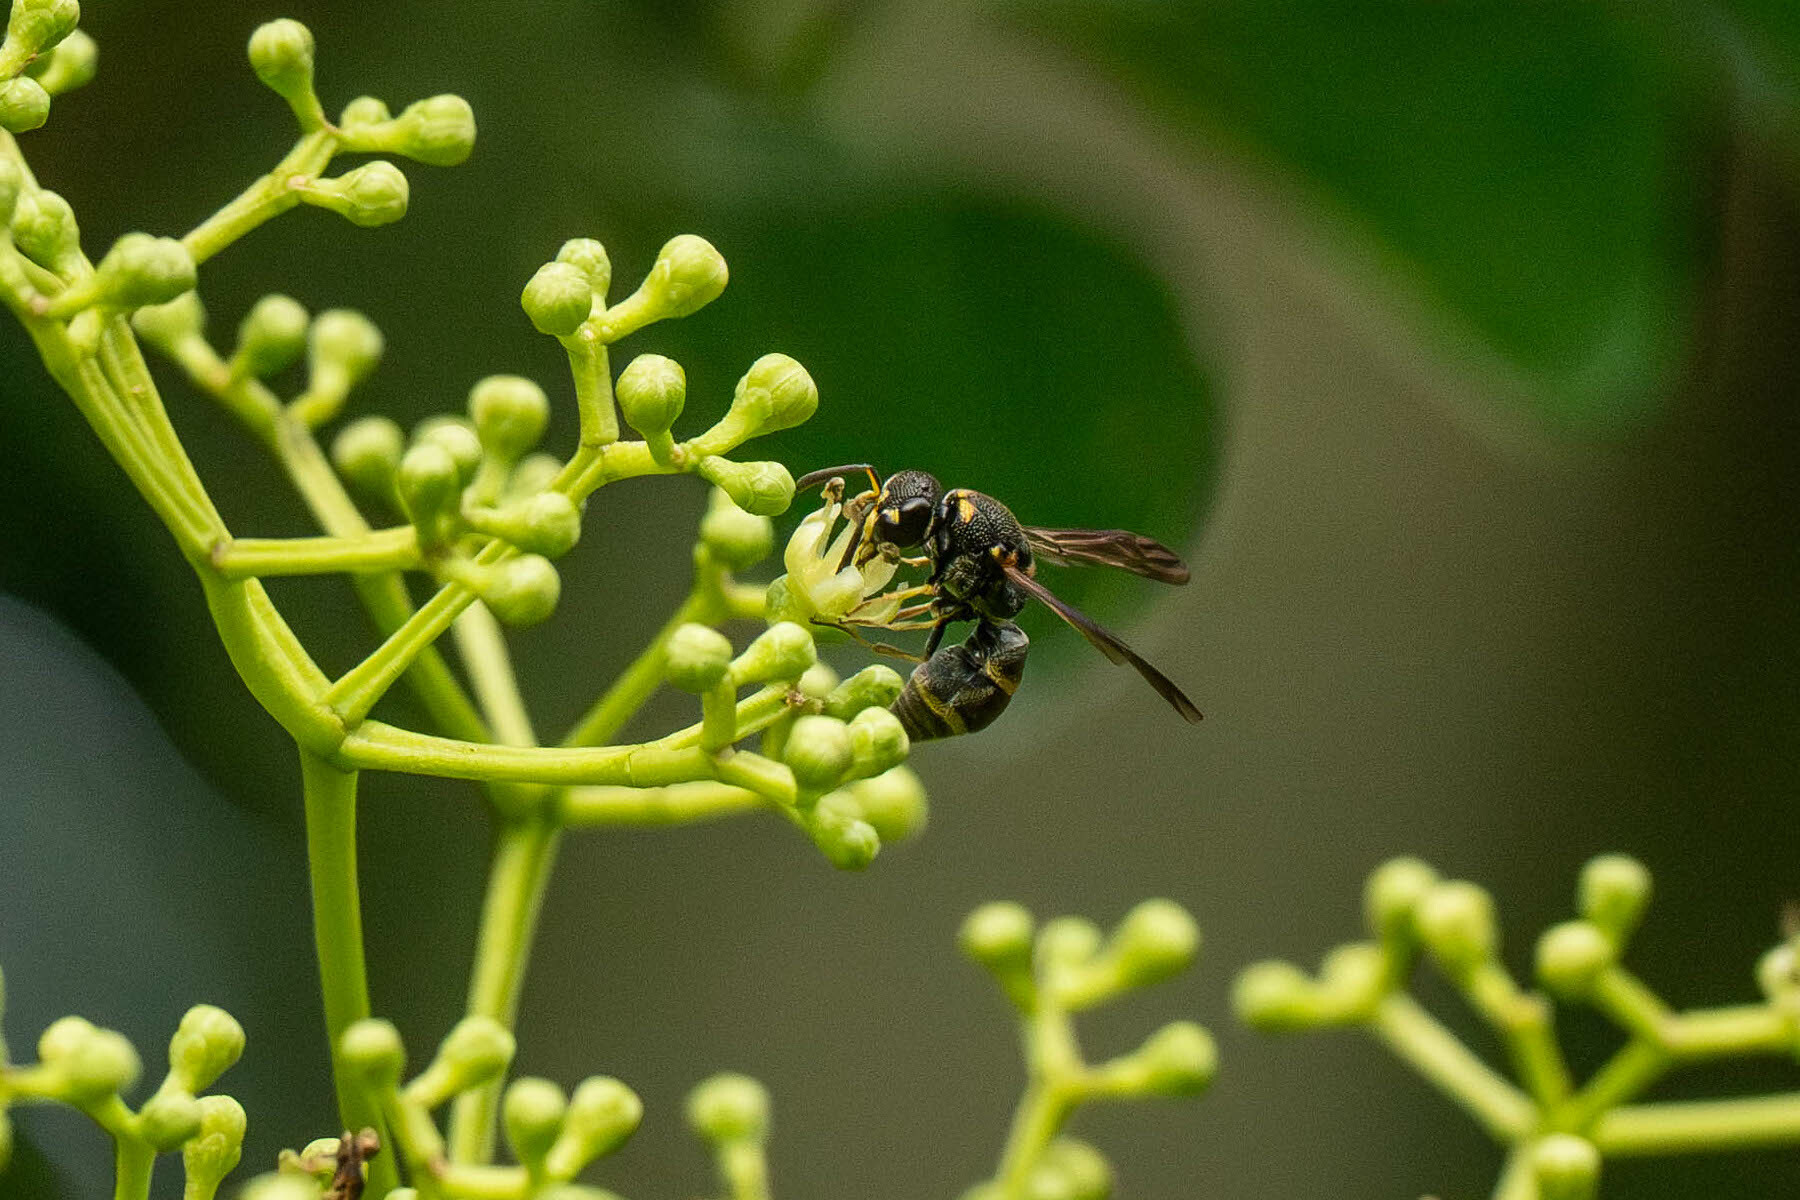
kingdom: Animalia
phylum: Arthropoda
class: Insecta
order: Hymenoptera
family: Eumenidae
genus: Parancistrocerus
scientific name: Parancistrocerus hongkongensis
